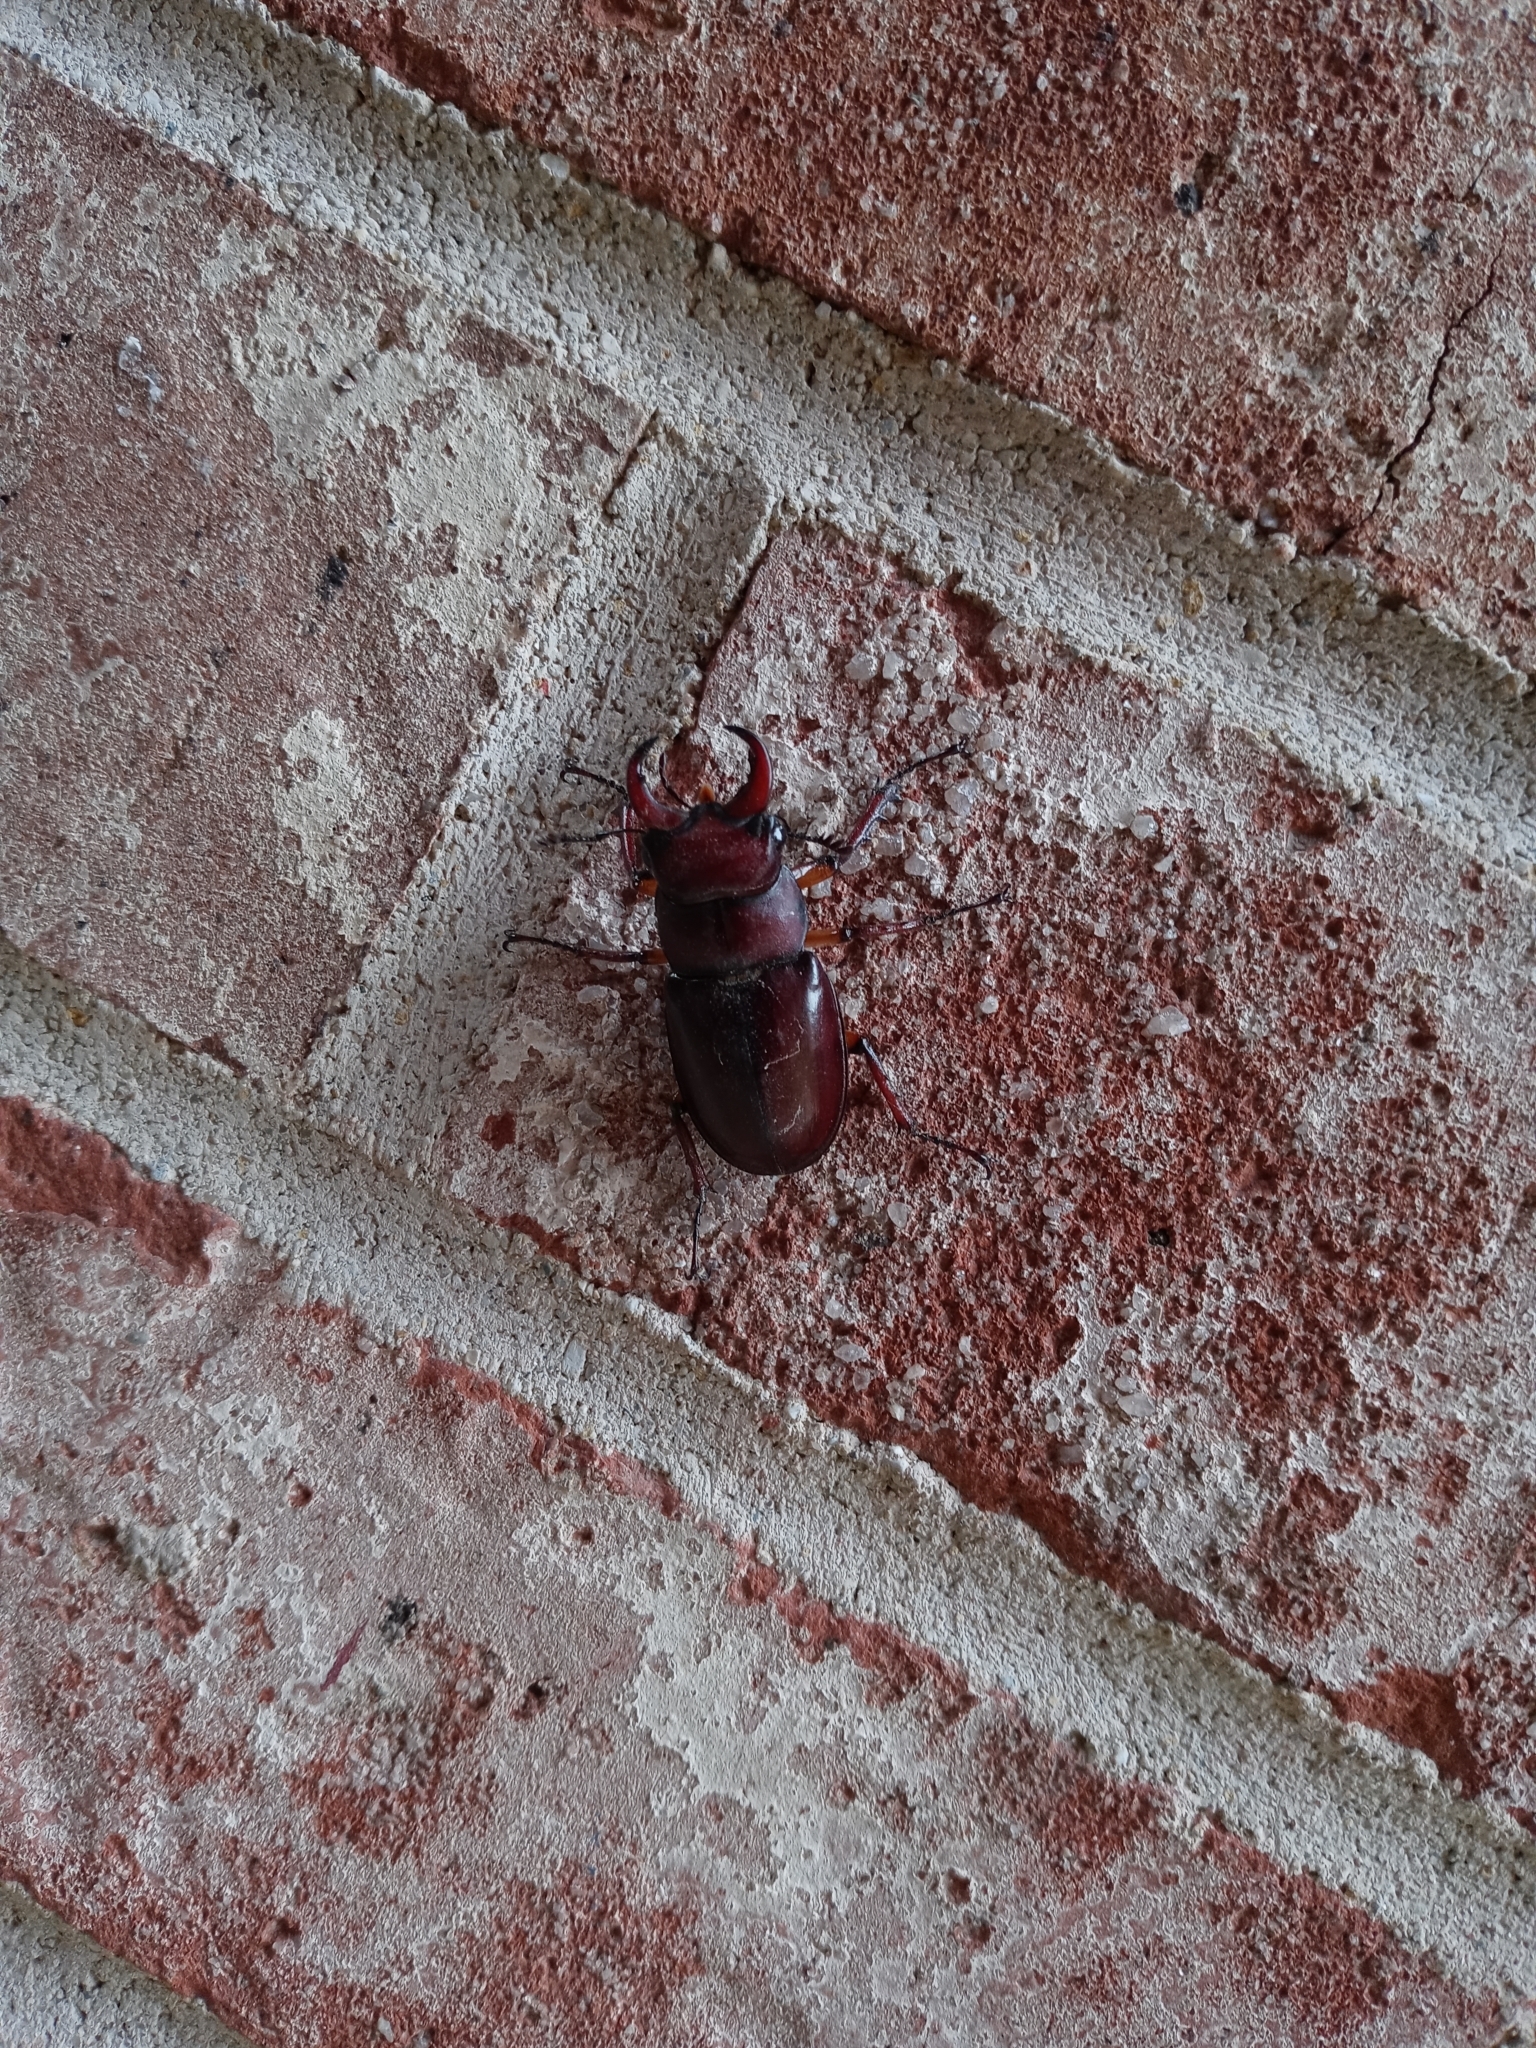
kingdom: Animalia
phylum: Arthropoda
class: Insecta
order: Coleoptera
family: Lucanidae
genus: Lucanus
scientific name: Lucanus capreolus
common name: Stag beetle
